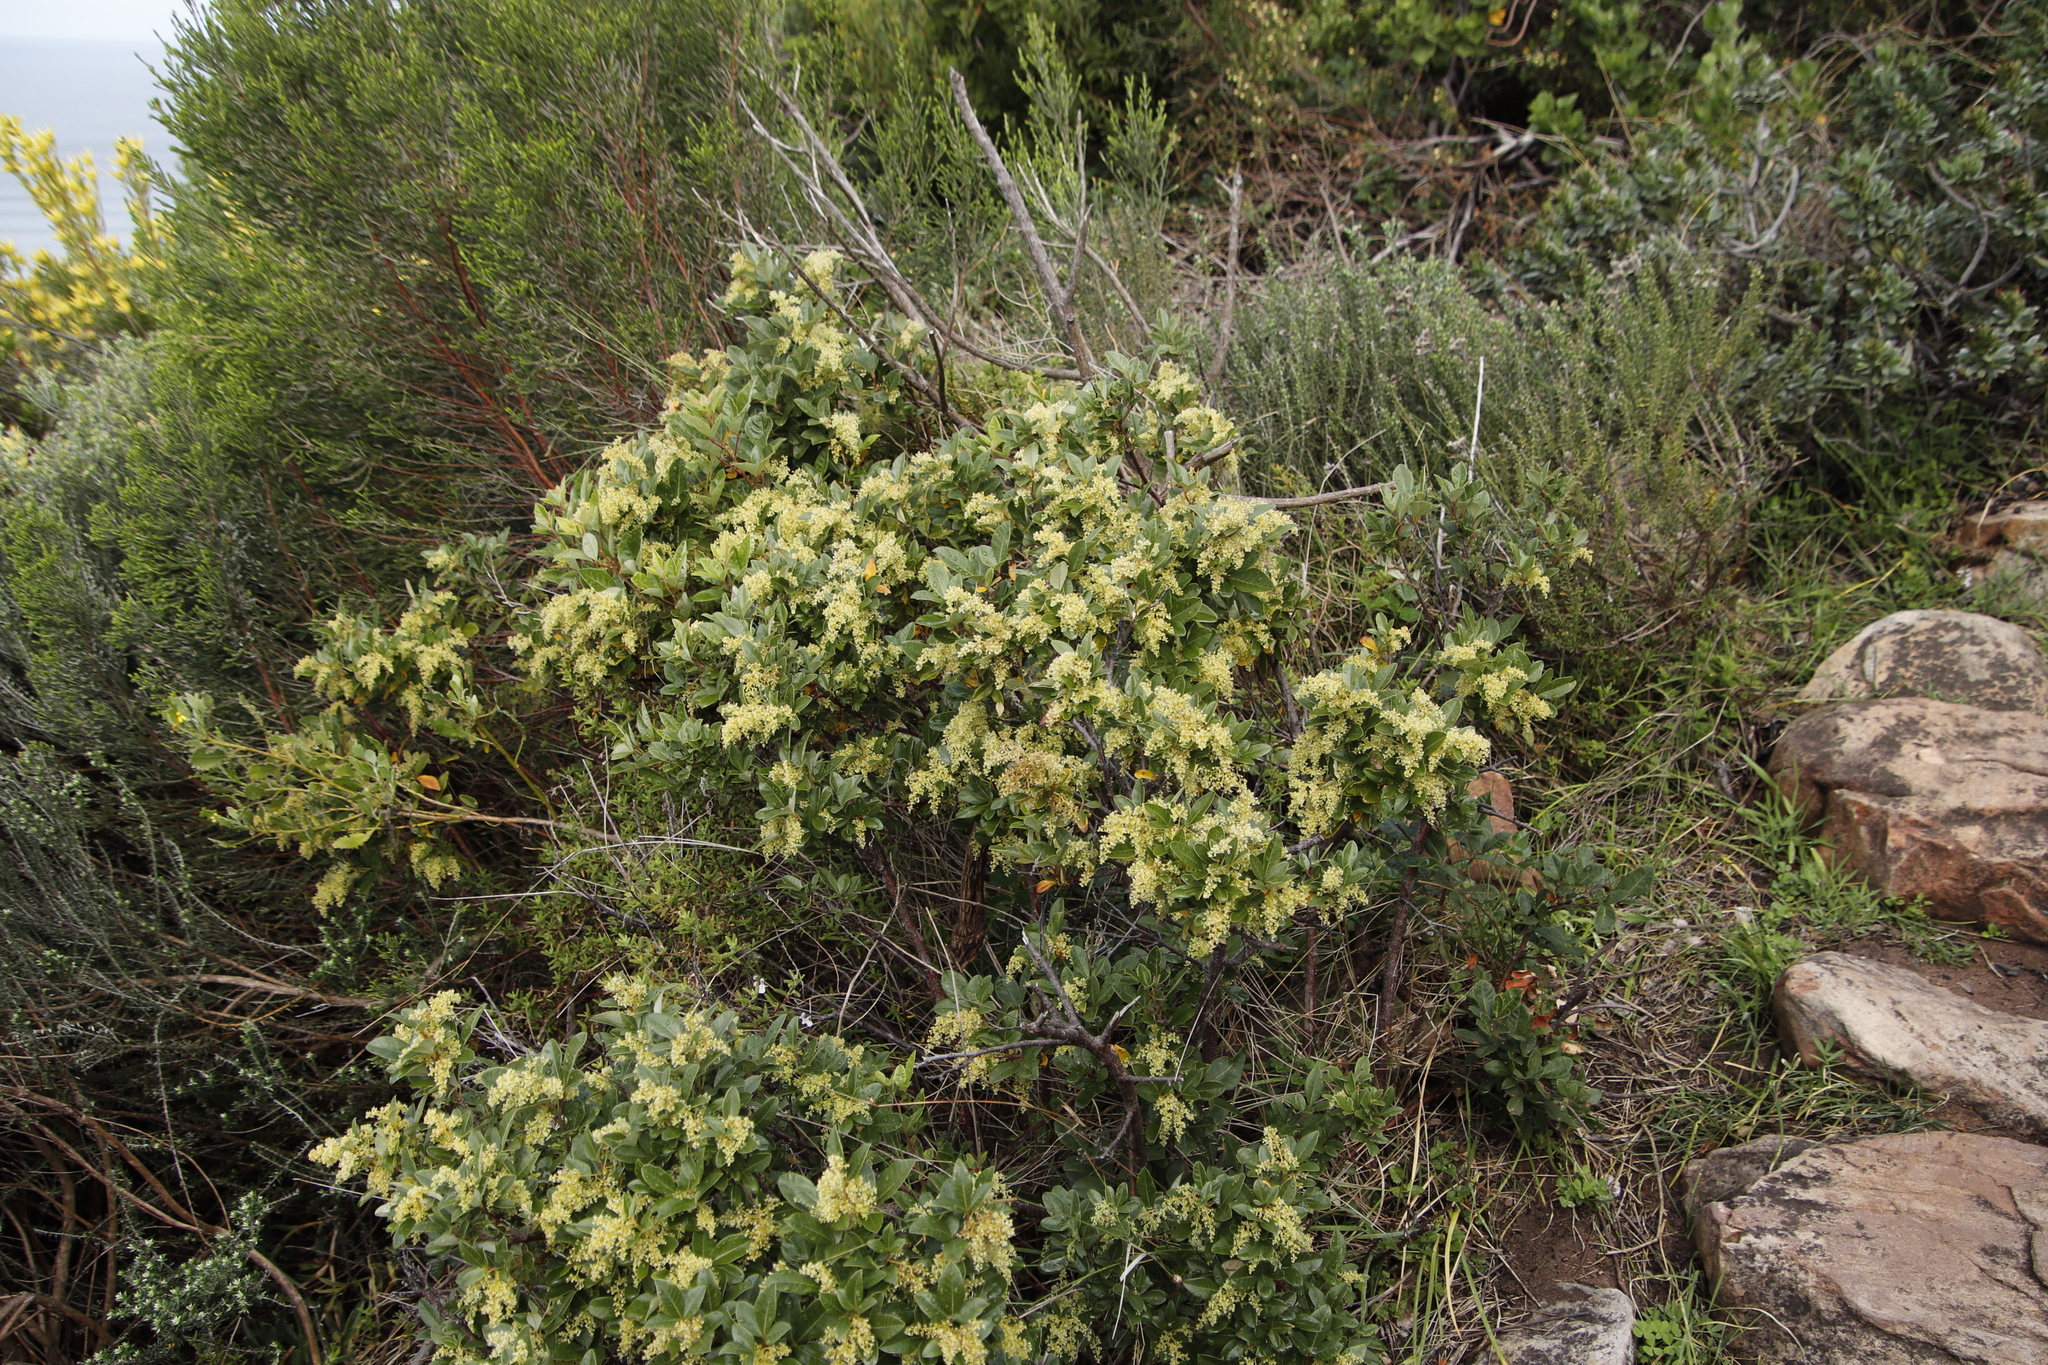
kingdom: Plantae
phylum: Tracheophyta
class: Magnoliopsida
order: Sapindales
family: Anacardiaceae
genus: Searsia
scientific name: Searsia tomentosa
